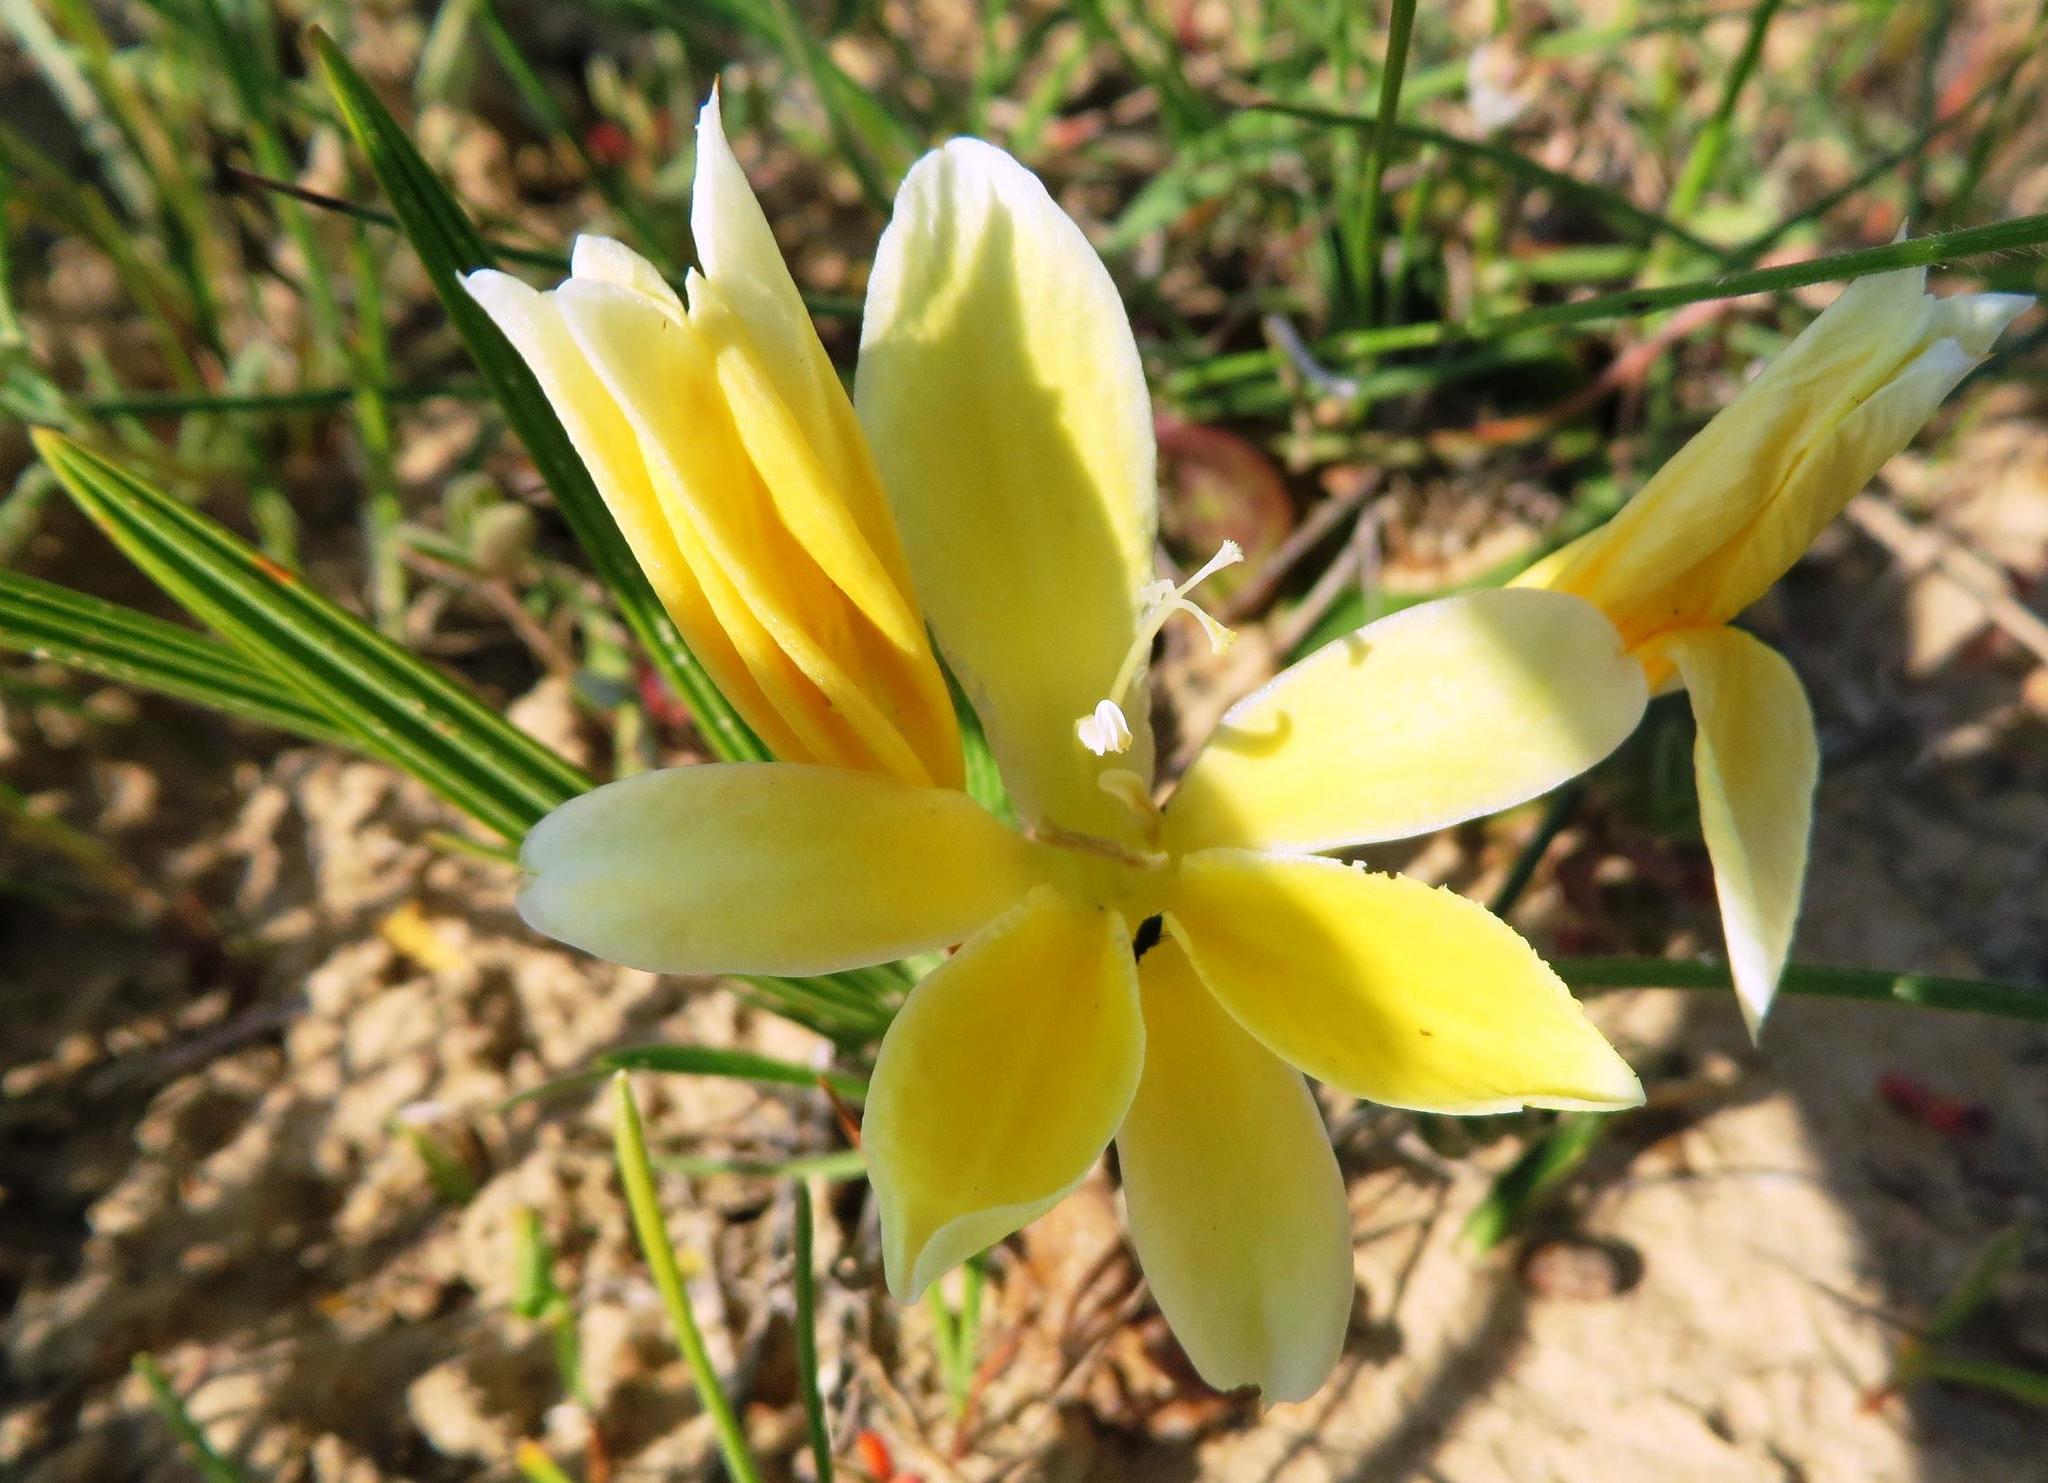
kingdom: Plantae
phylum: Tracheophyta
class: Liliopsida
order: Asparagales
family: Iridaceae
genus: Babiana
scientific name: Babiana vanzijliae
